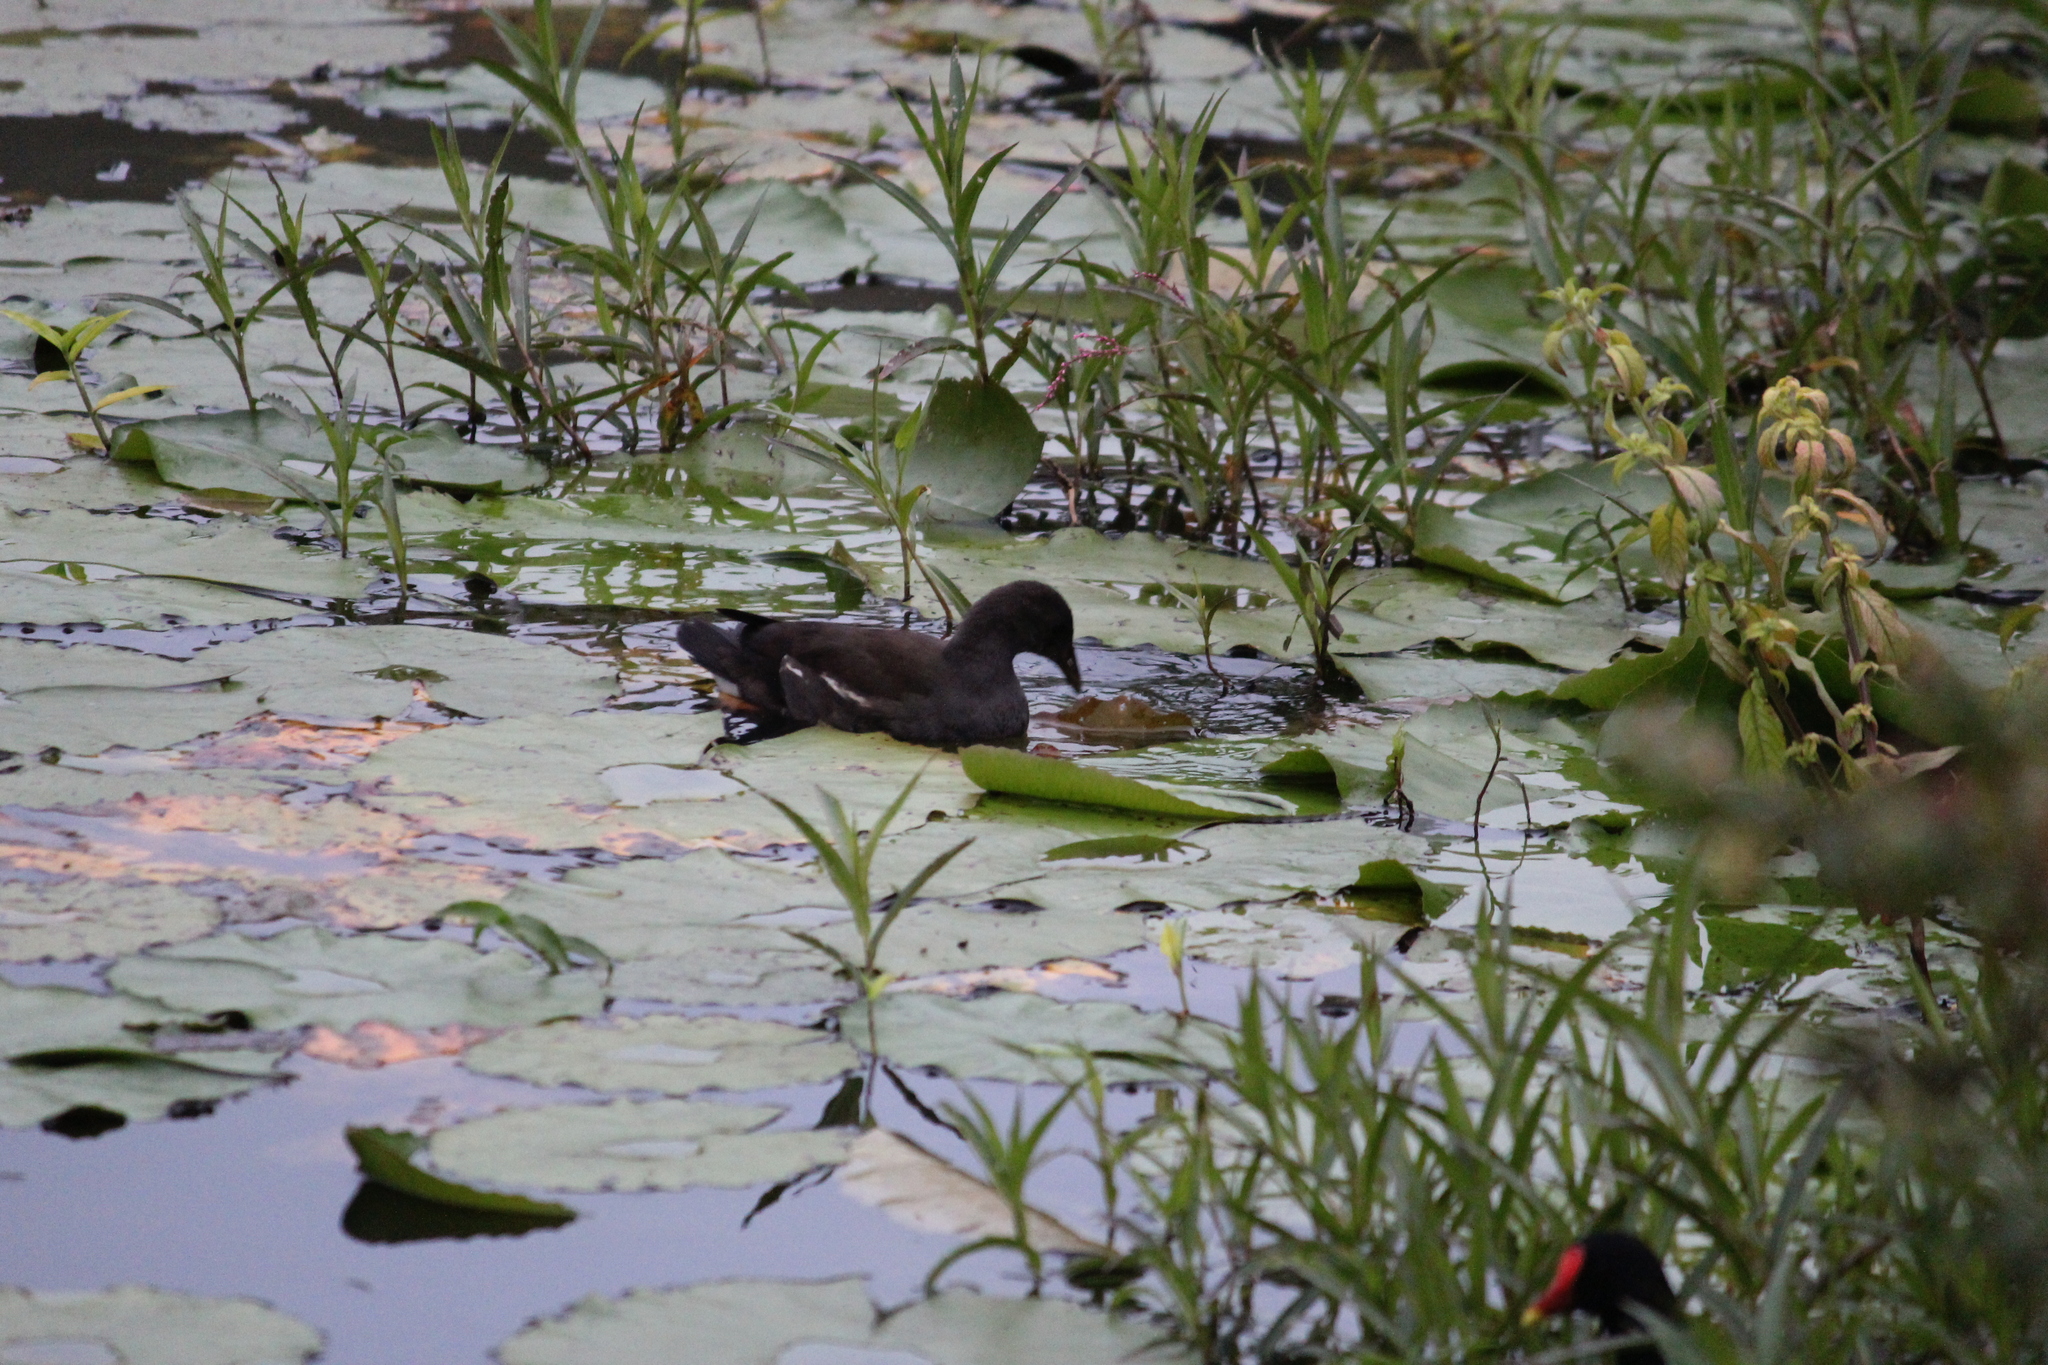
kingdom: Animalia
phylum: Chordata
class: Aves
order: Gruiformes
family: Rallidae
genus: Gallinula
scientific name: Gallinula chloropus
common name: Common moorhen
